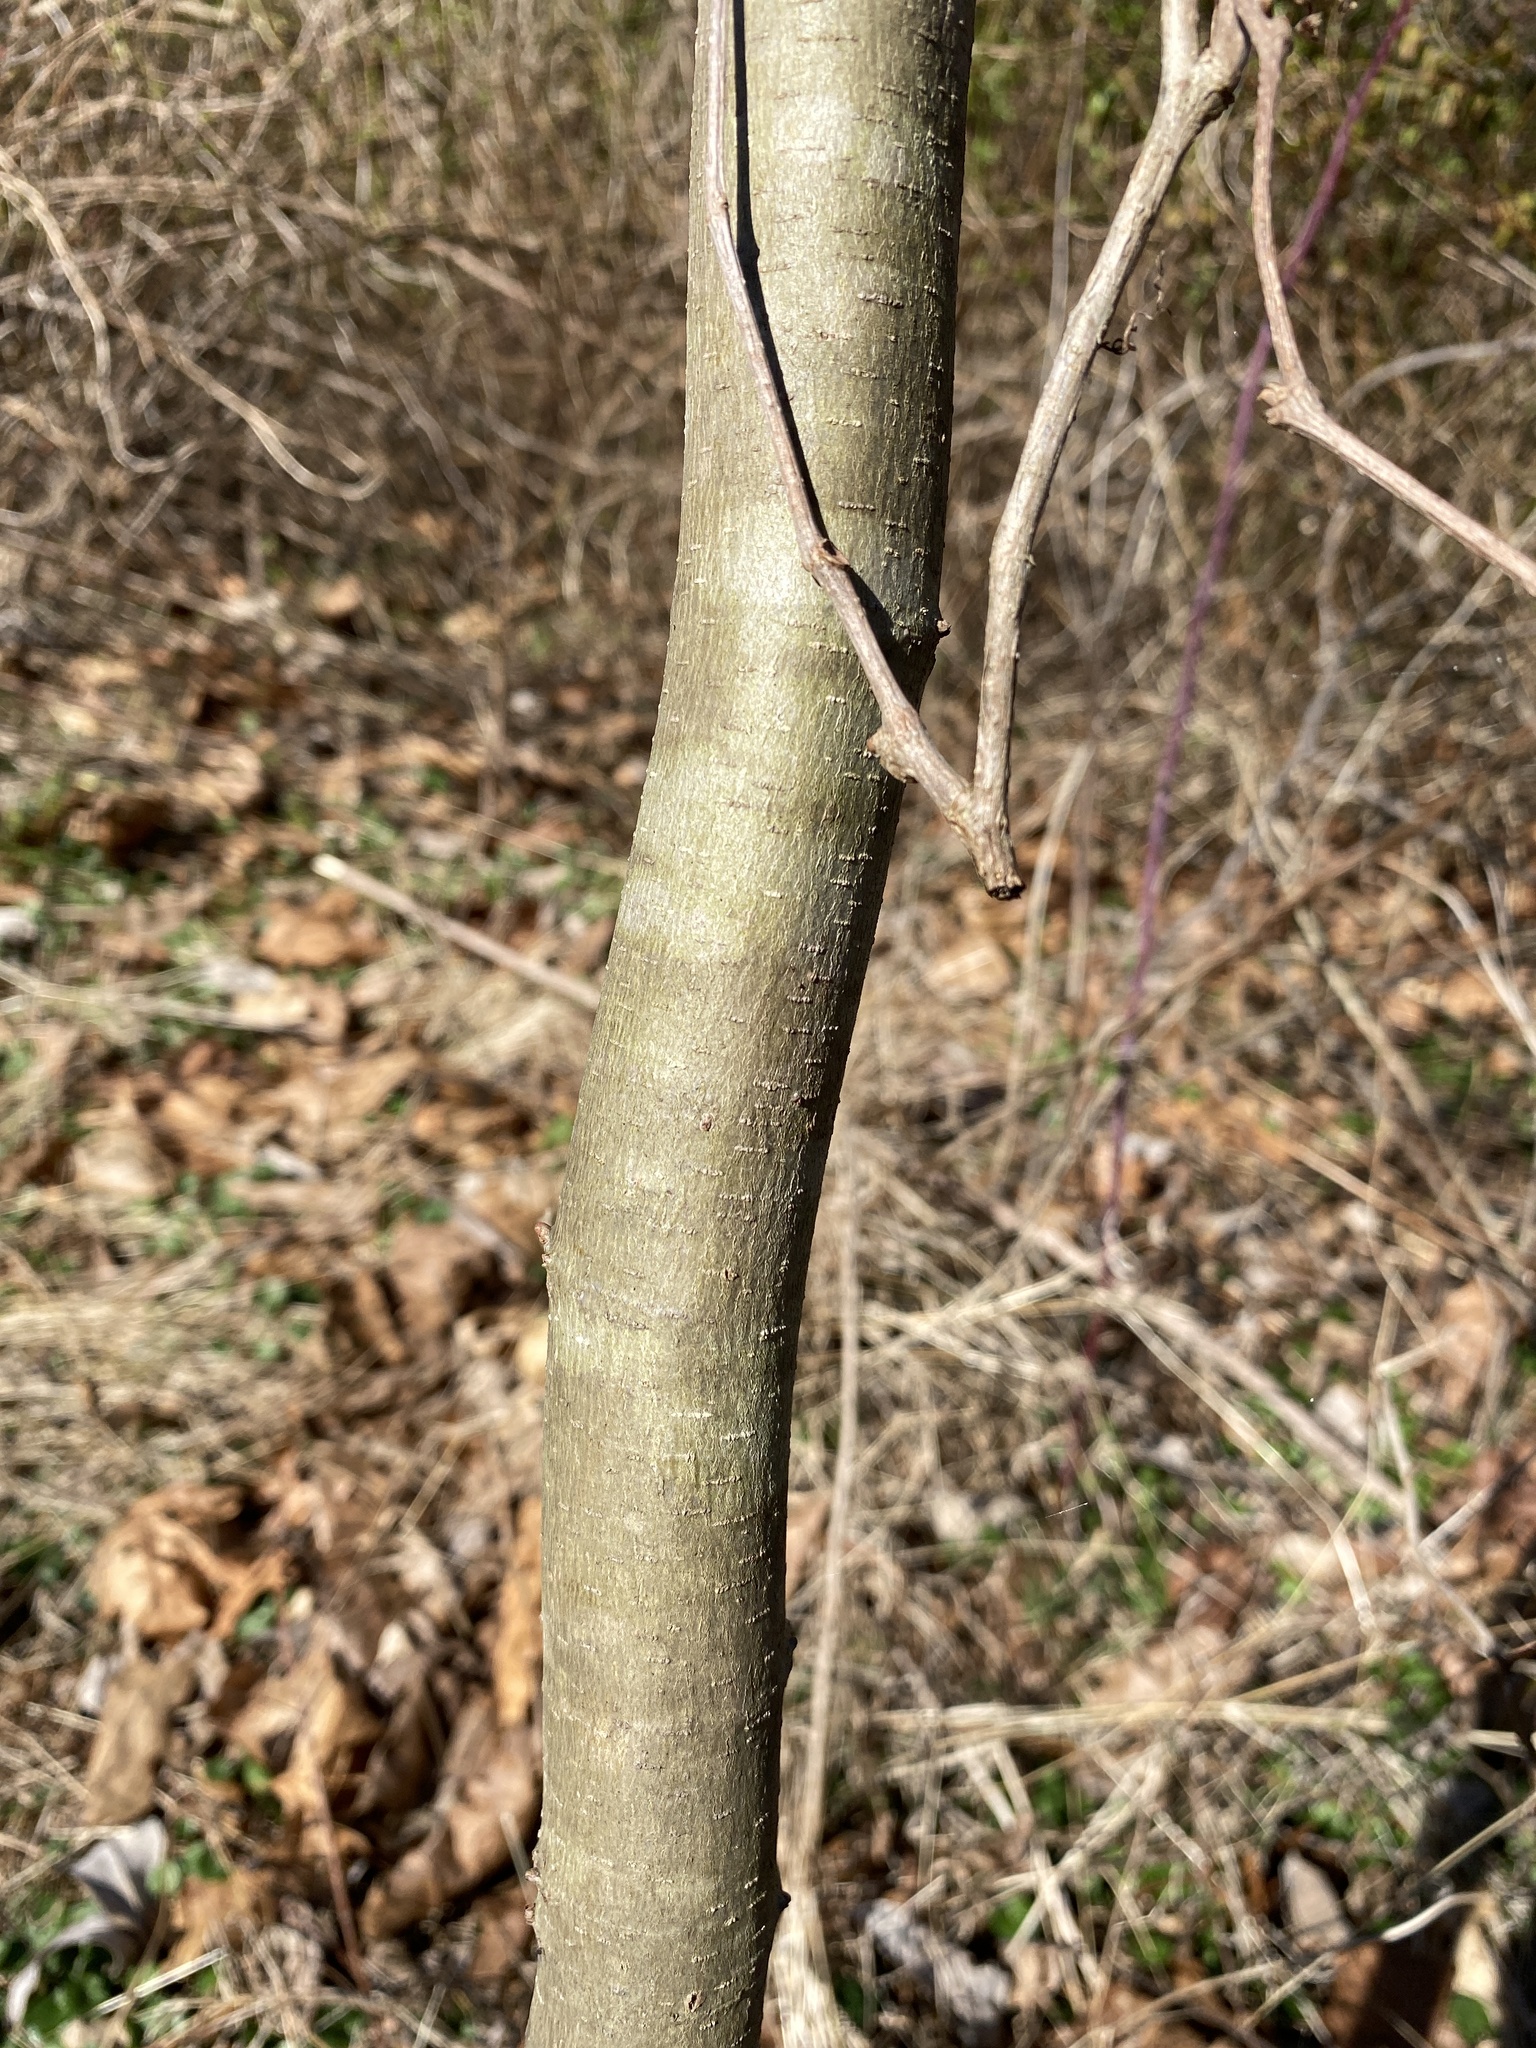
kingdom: Plantae
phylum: Tracheophyta
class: Magnoliopsida
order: Proteales
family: Platanaceae
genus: Platanus
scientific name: Platanus occidentalis
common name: American sycamore
